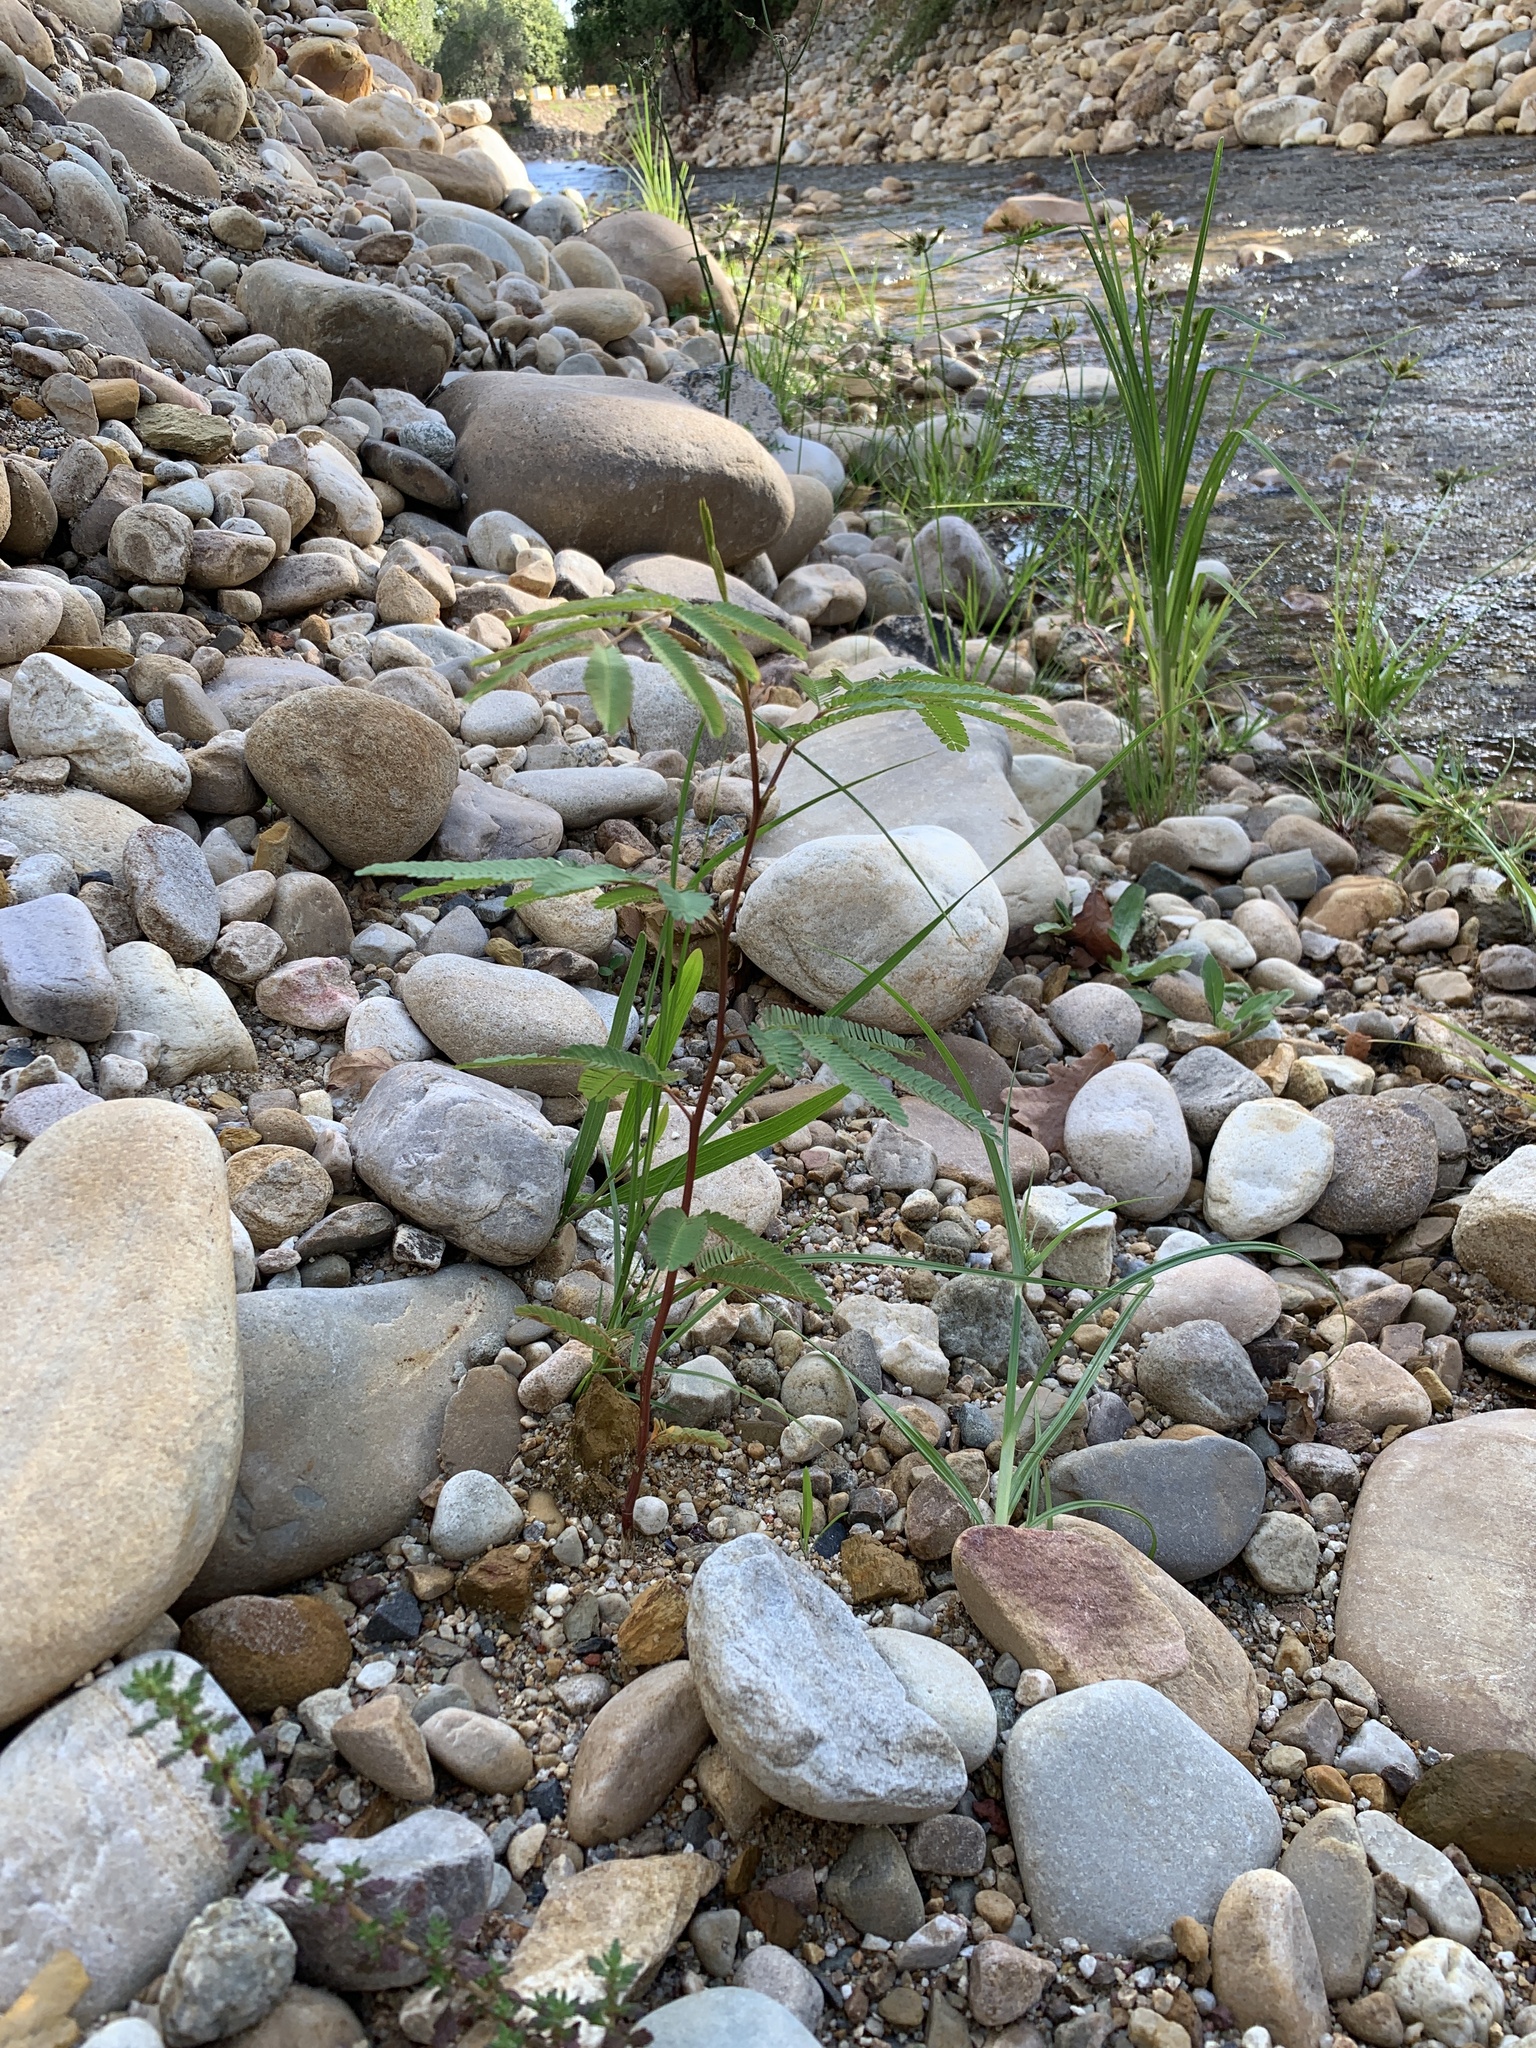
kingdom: Plantae
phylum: Tracheophyta
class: Magnoliopsida
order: Fabales
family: Fabaceae
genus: Paraserianthes
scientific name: Paraserianthes lophantha
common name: Plume albizia
